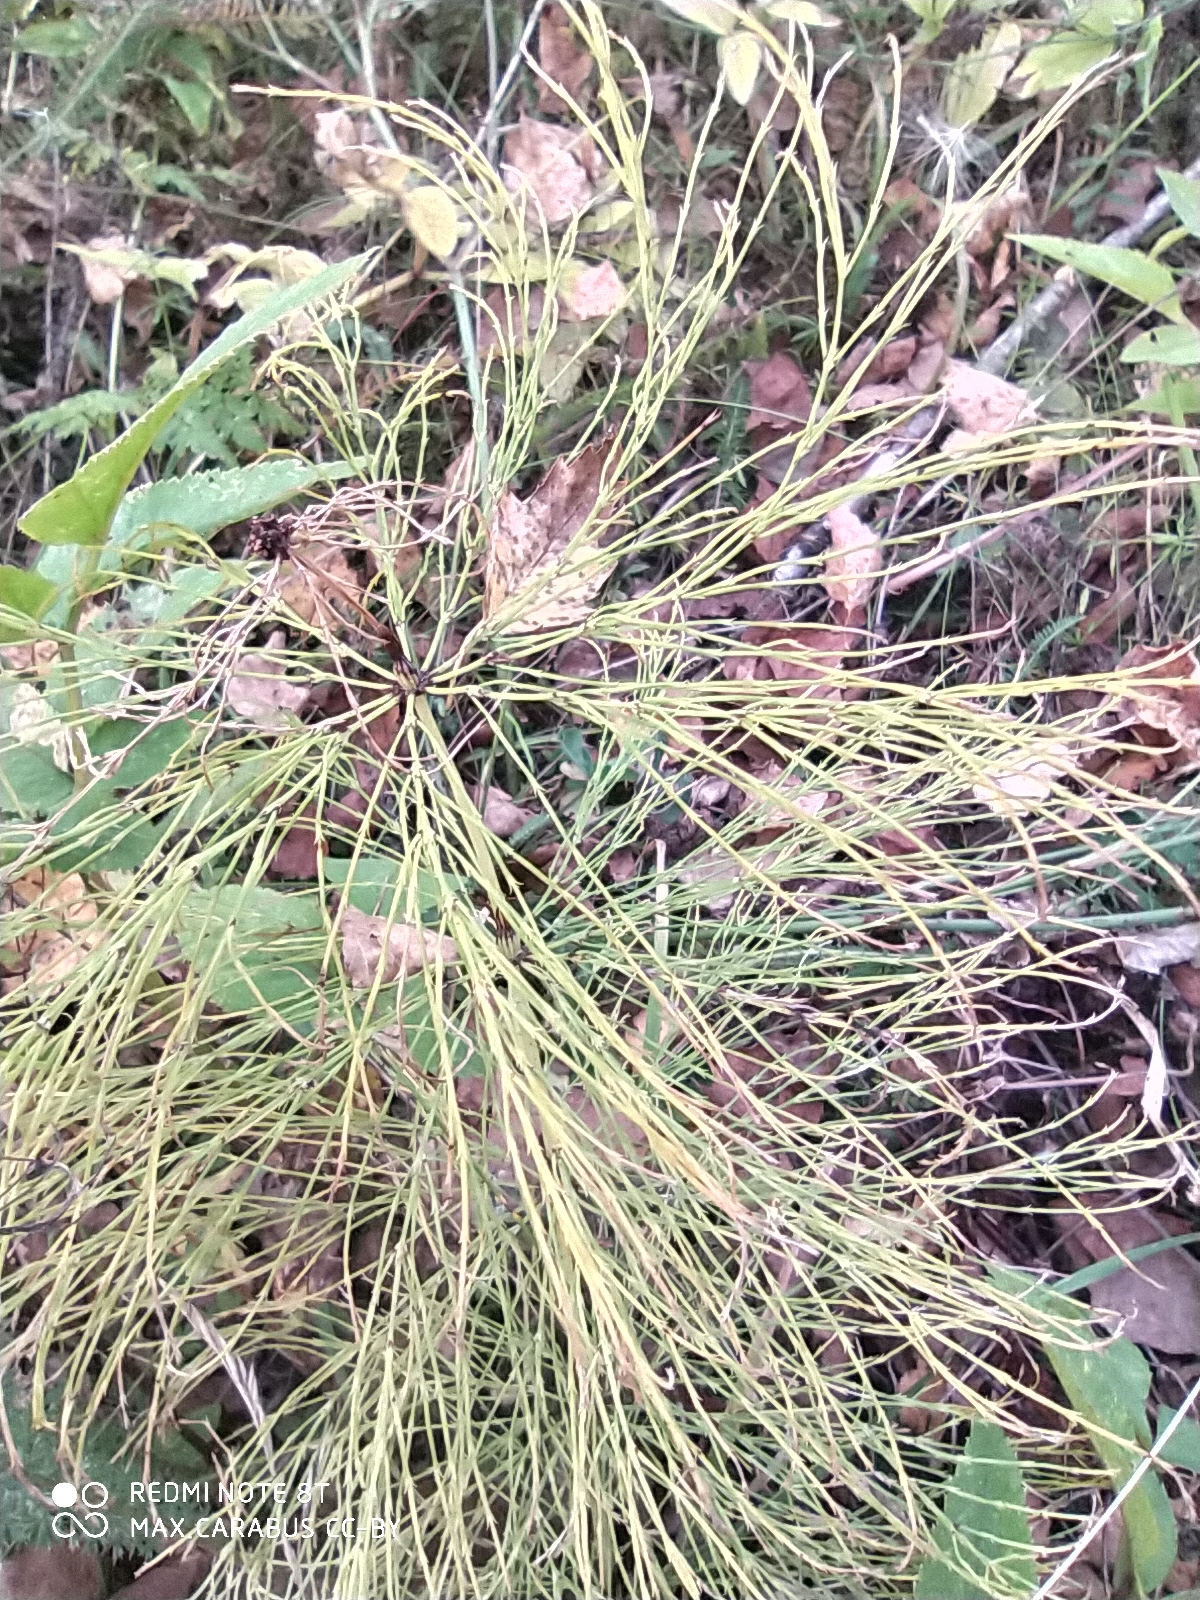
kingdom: Plantae
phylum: Tracheophyta
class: Polypodiopsida
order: Equisetales
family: Equisetaceae
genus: Equisetum
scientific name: Equisetum sylvaticum
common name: Wood horsetail
